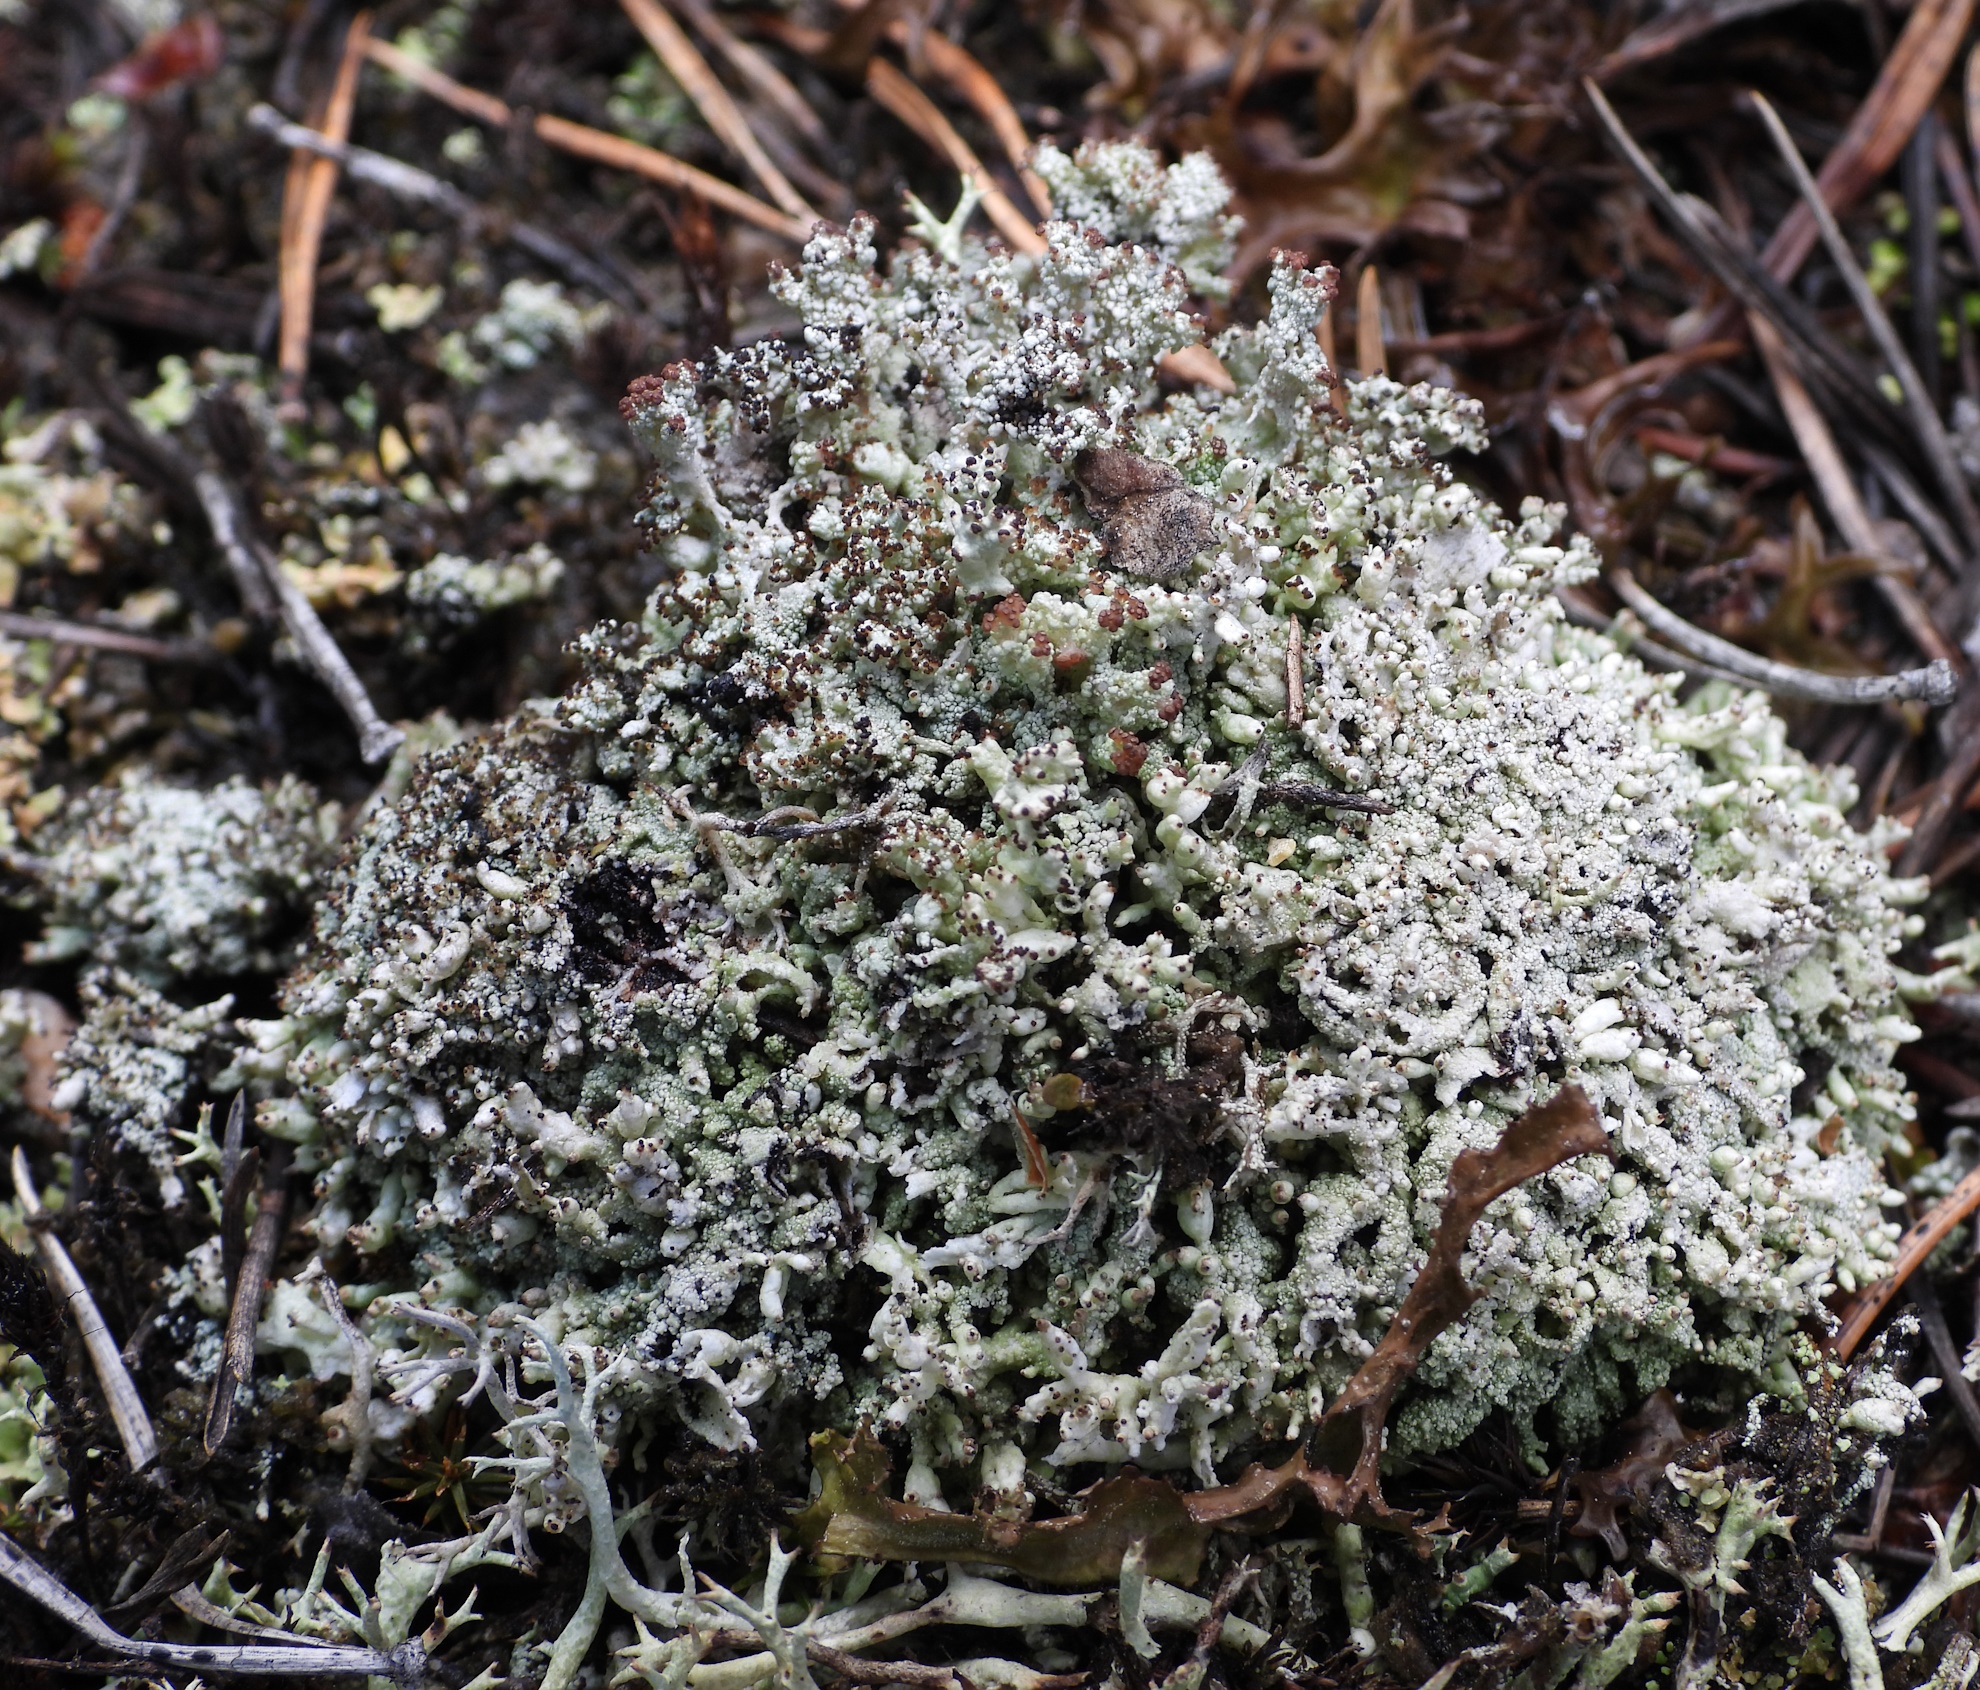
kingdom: Fungi
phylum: Ascomycota
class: Lecanoromycetes
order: Lecanorales
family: Cladoniaceae
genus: Pycnothelia
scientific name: Pycnothelia papillaria
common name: Nipple lichen
